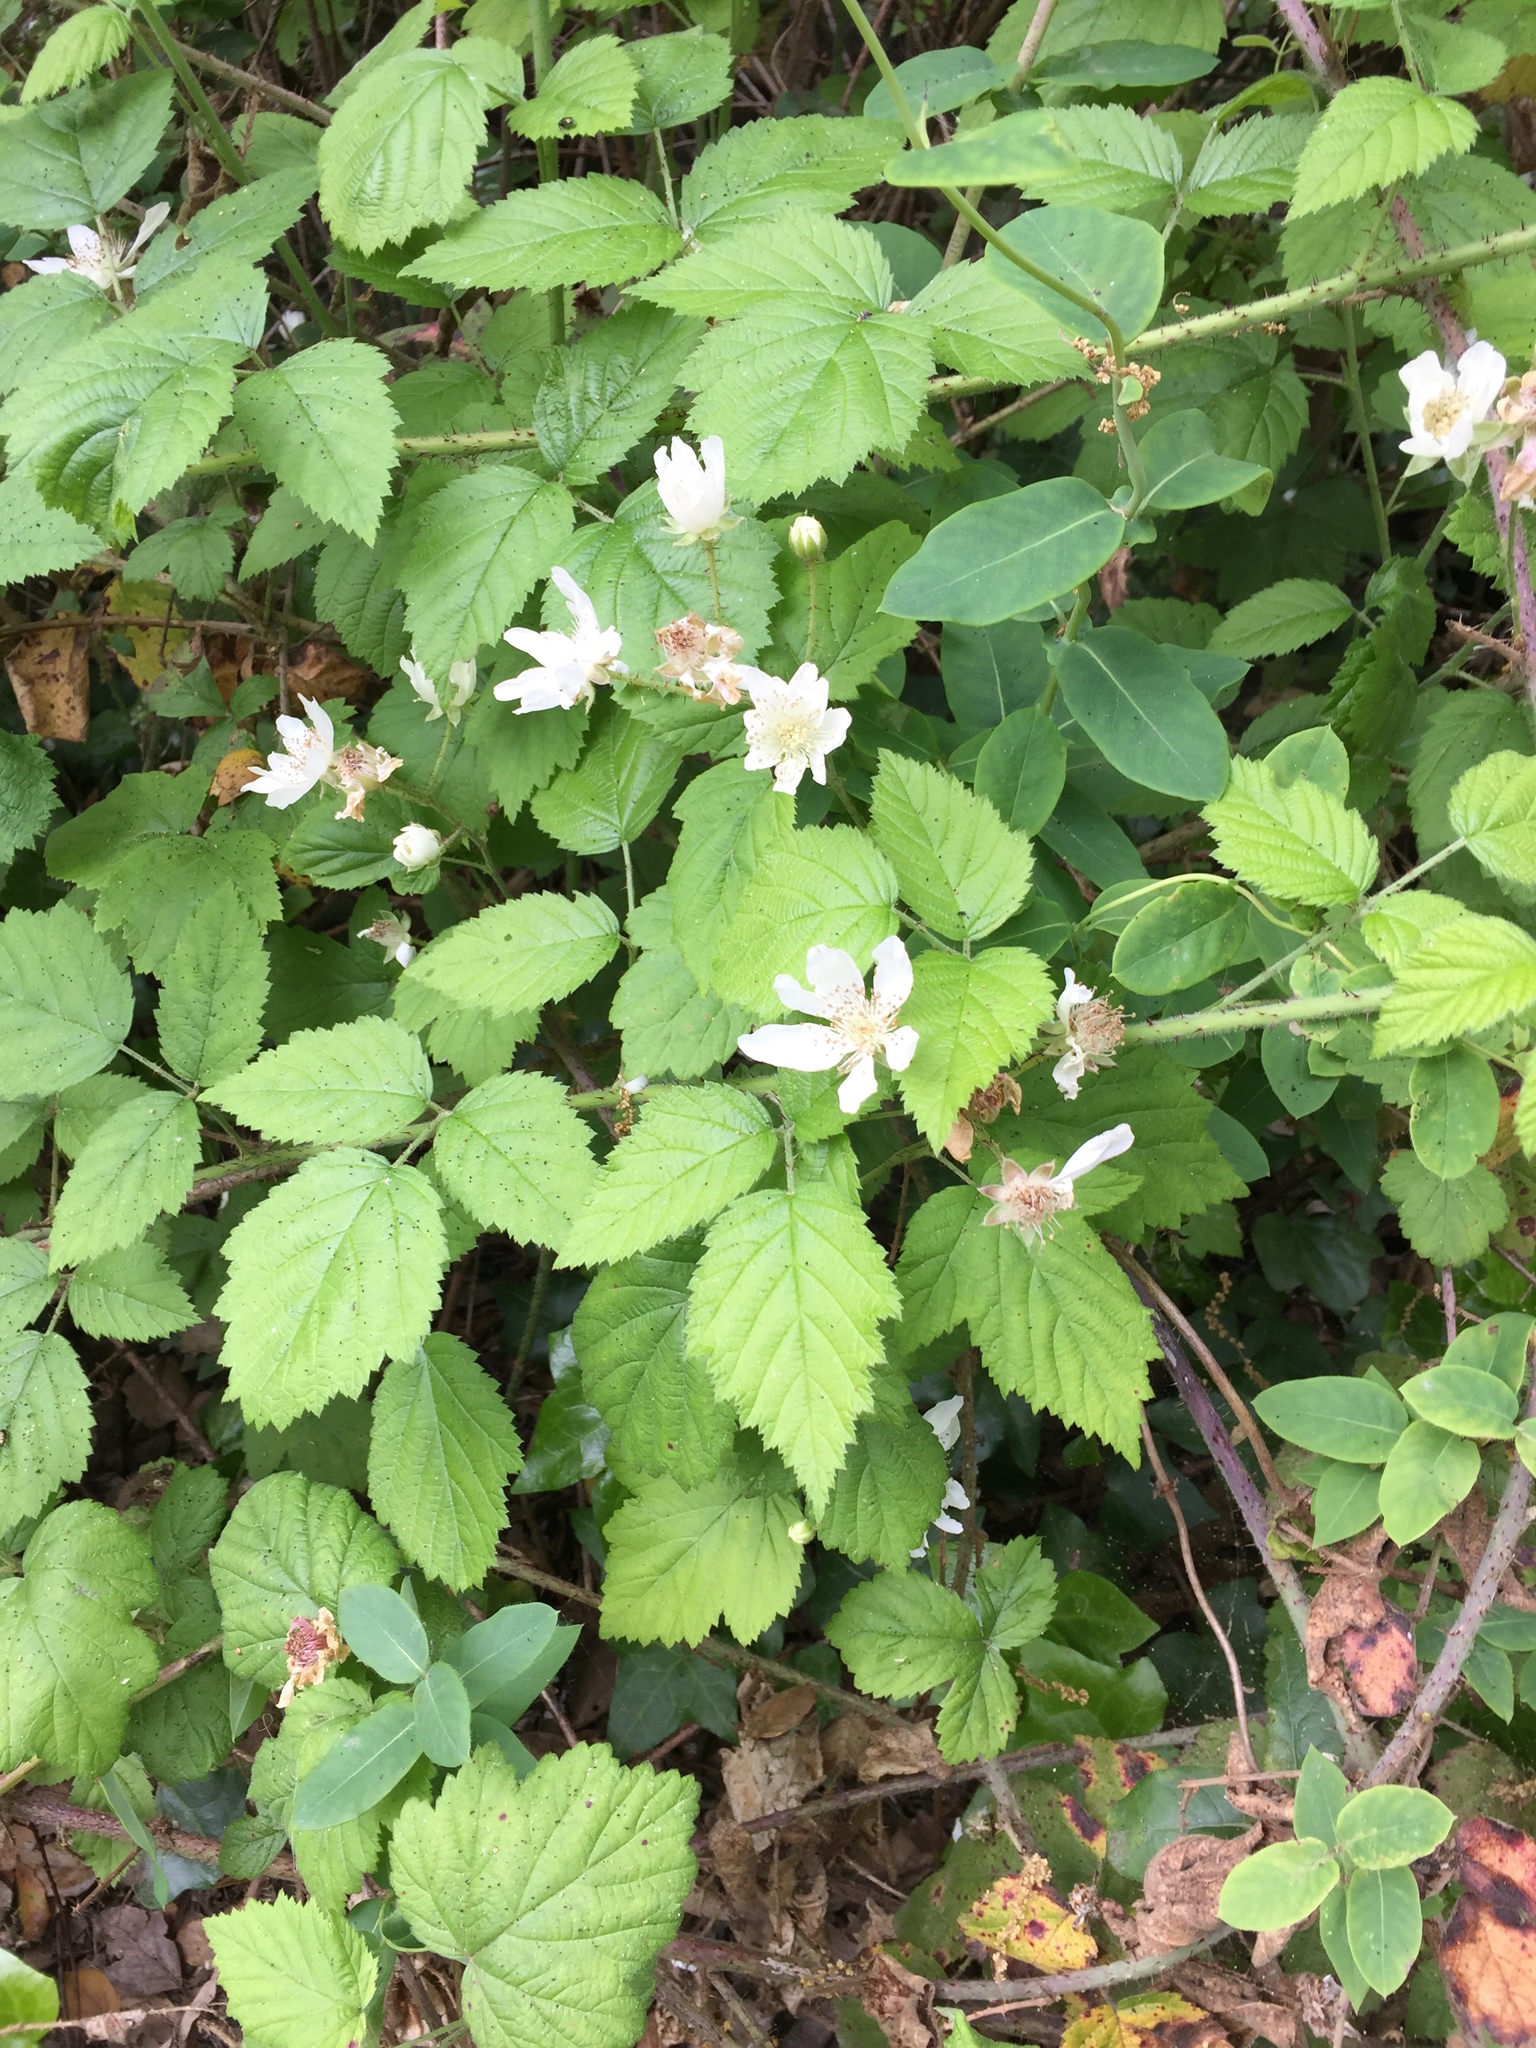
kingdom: Plantae
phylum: Tracheophyta
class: Magnoliopsida
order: Rosales
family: Rosaceae
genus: Rubus
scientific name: Rubus ursinus
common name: Pacific blackberry
